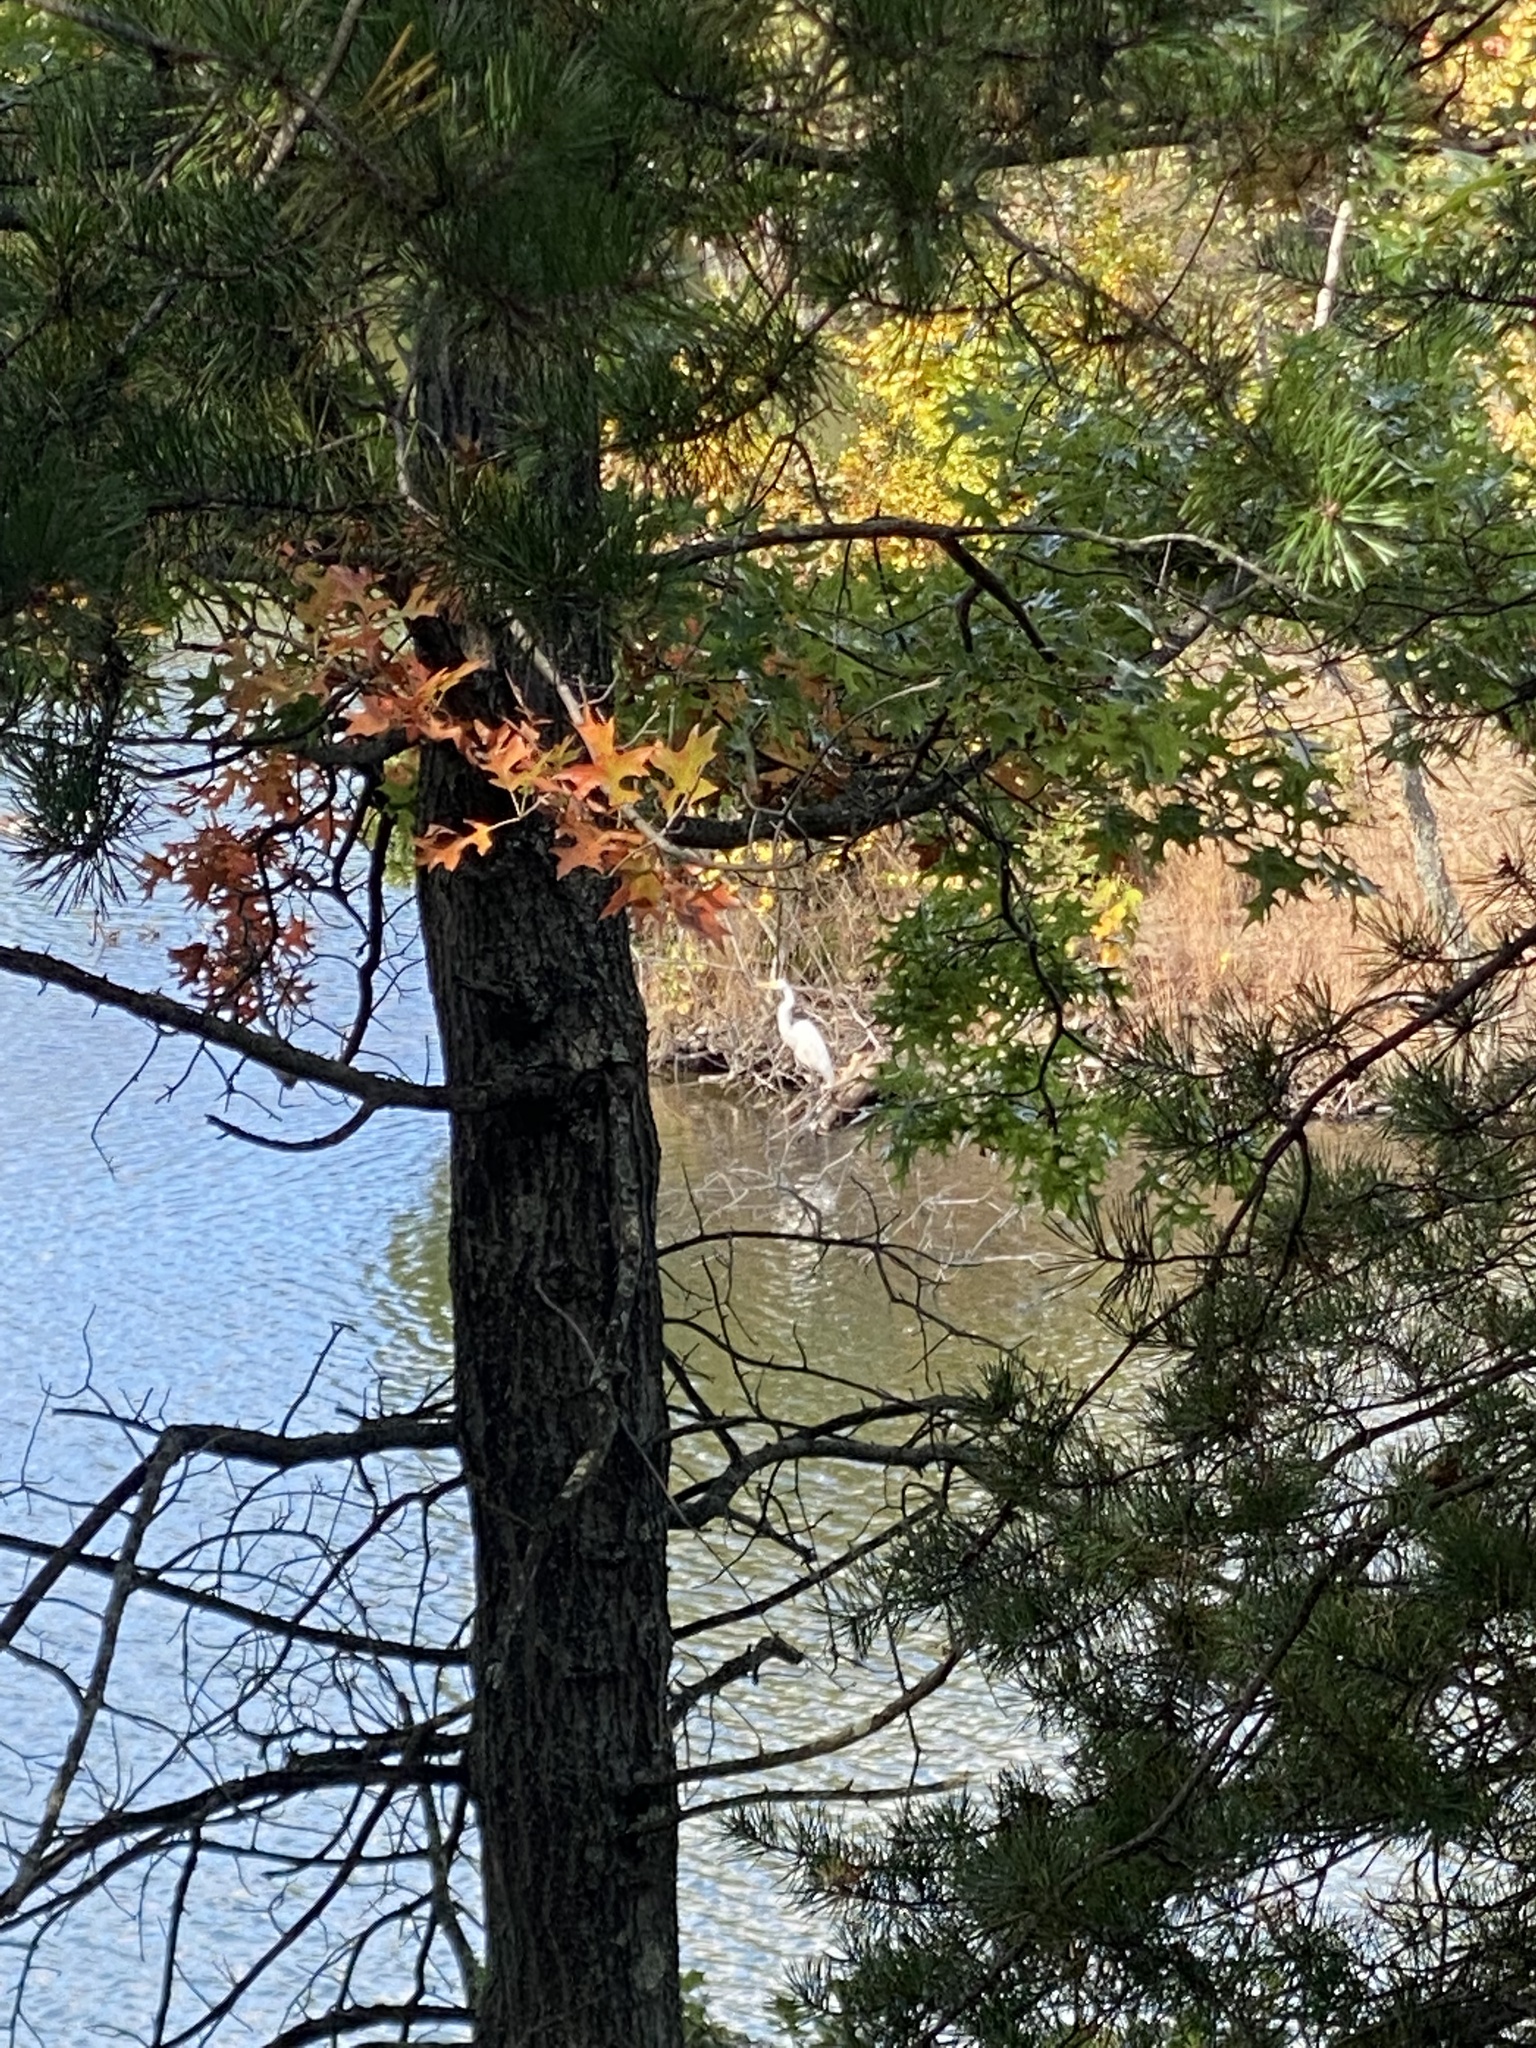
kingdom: Animalia
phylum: Chordata
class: Aves
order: Pelecaniformes
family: Ardeidae
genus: Ardea
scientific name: Ardea alba
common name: Great egret
